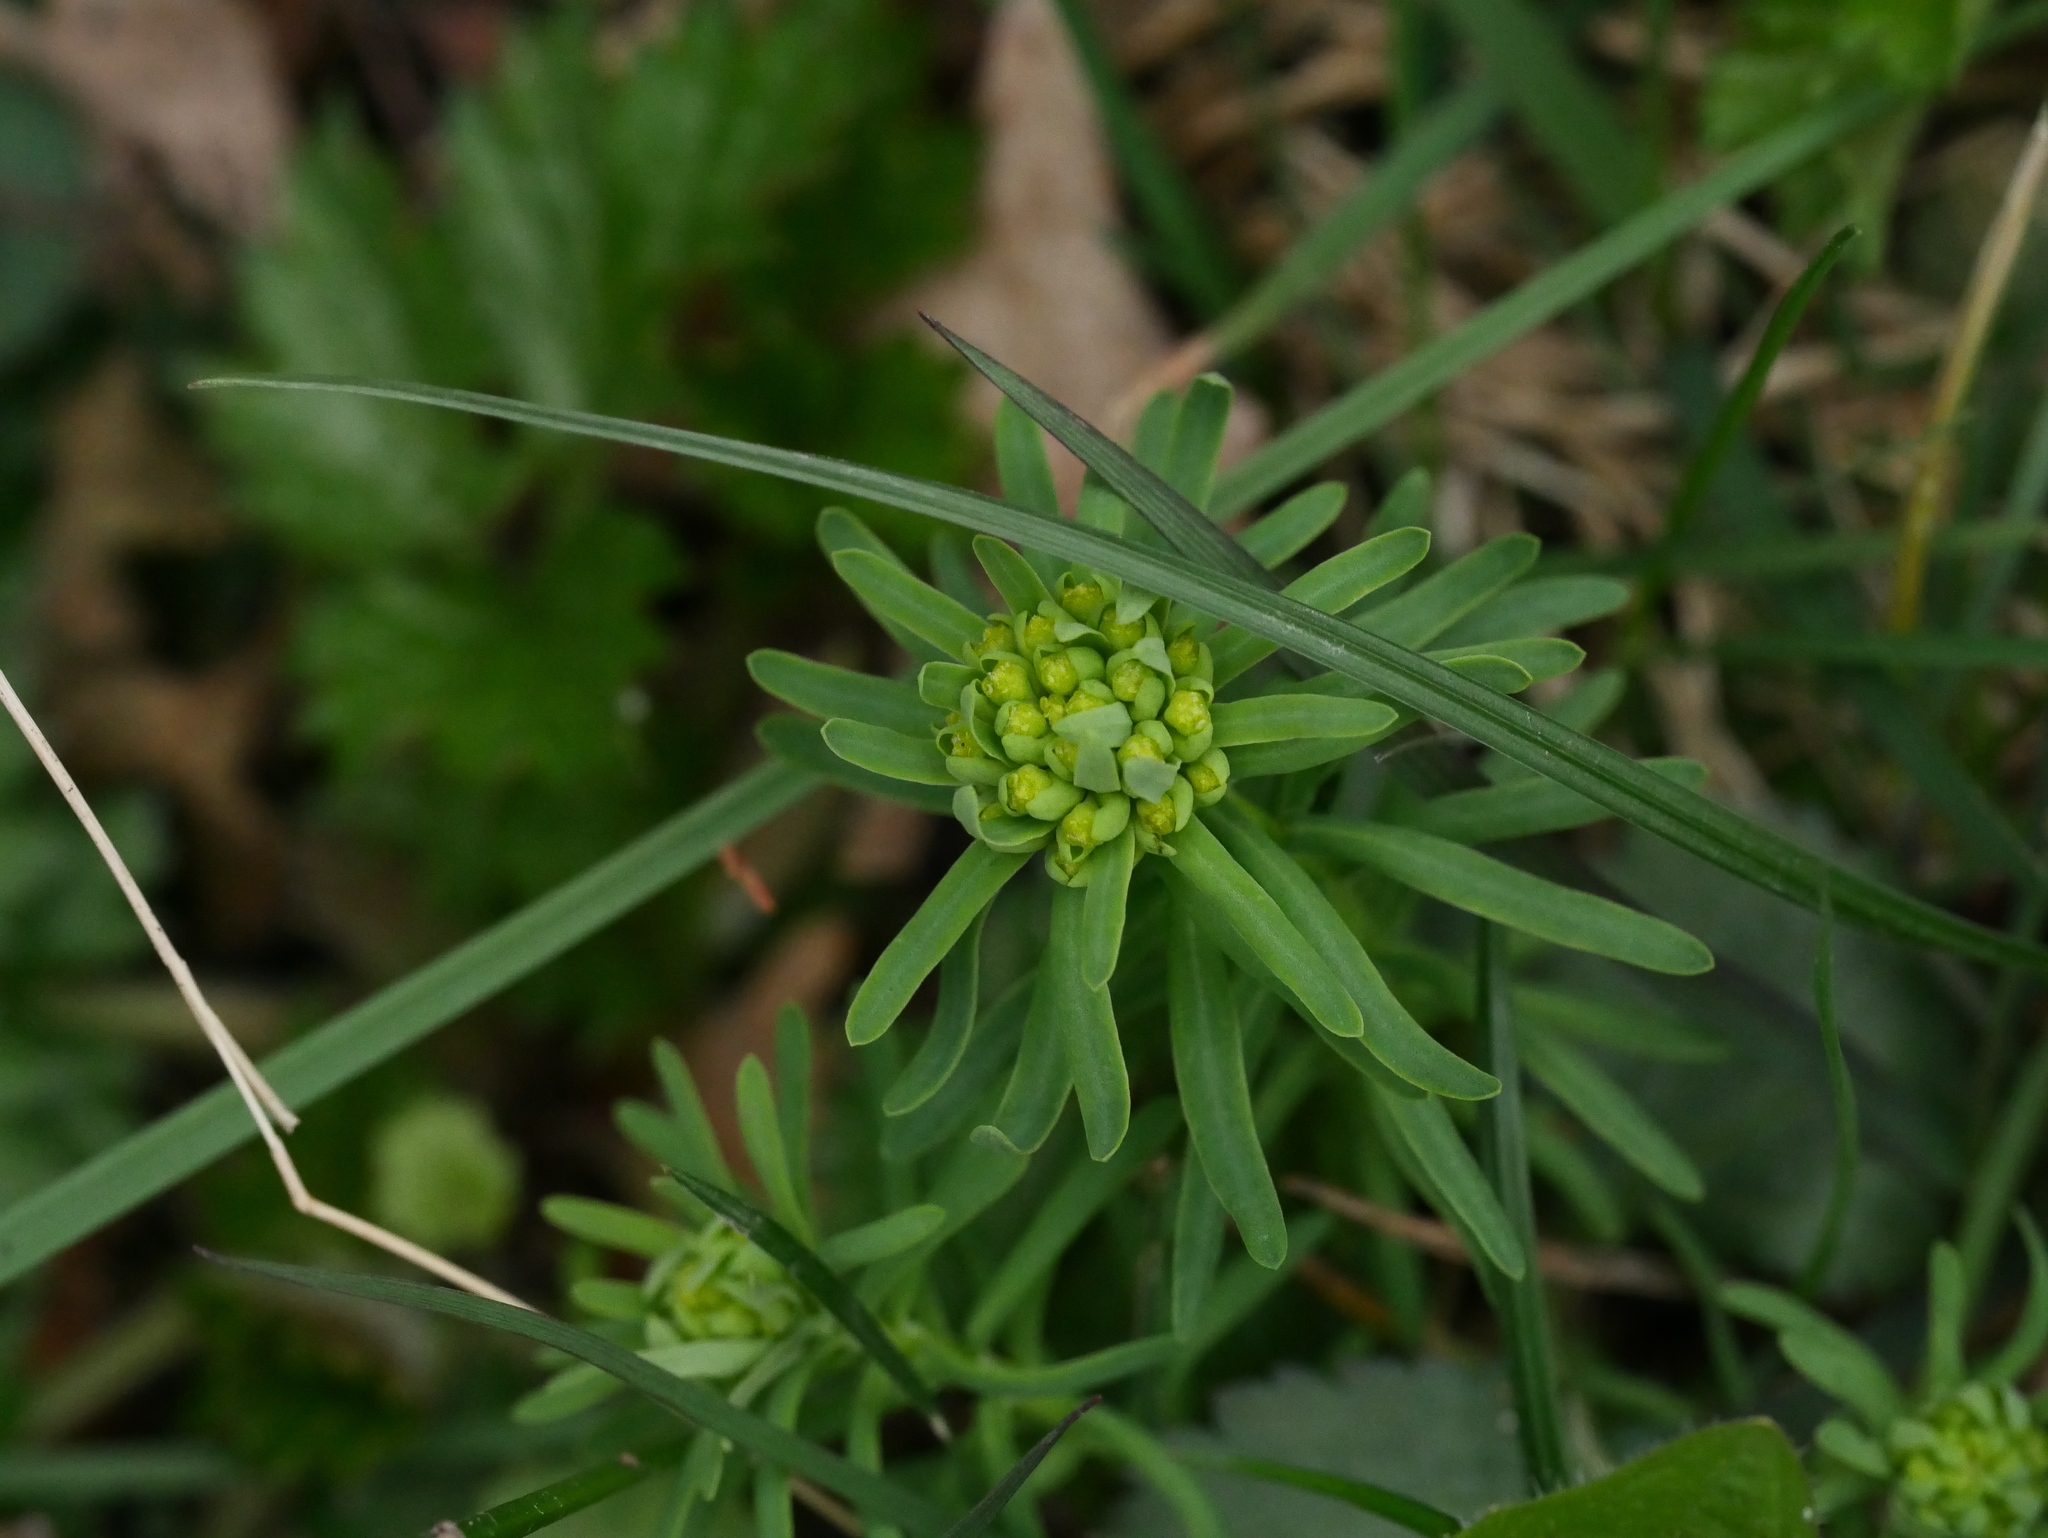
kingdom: Plantae
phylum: Tracheophyta
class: Magnoliopsida
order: Malpighiales
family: Euphorbiaceae
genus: Euphorbia
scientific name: Euphorbia cyparissias
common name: Cypress spurge
